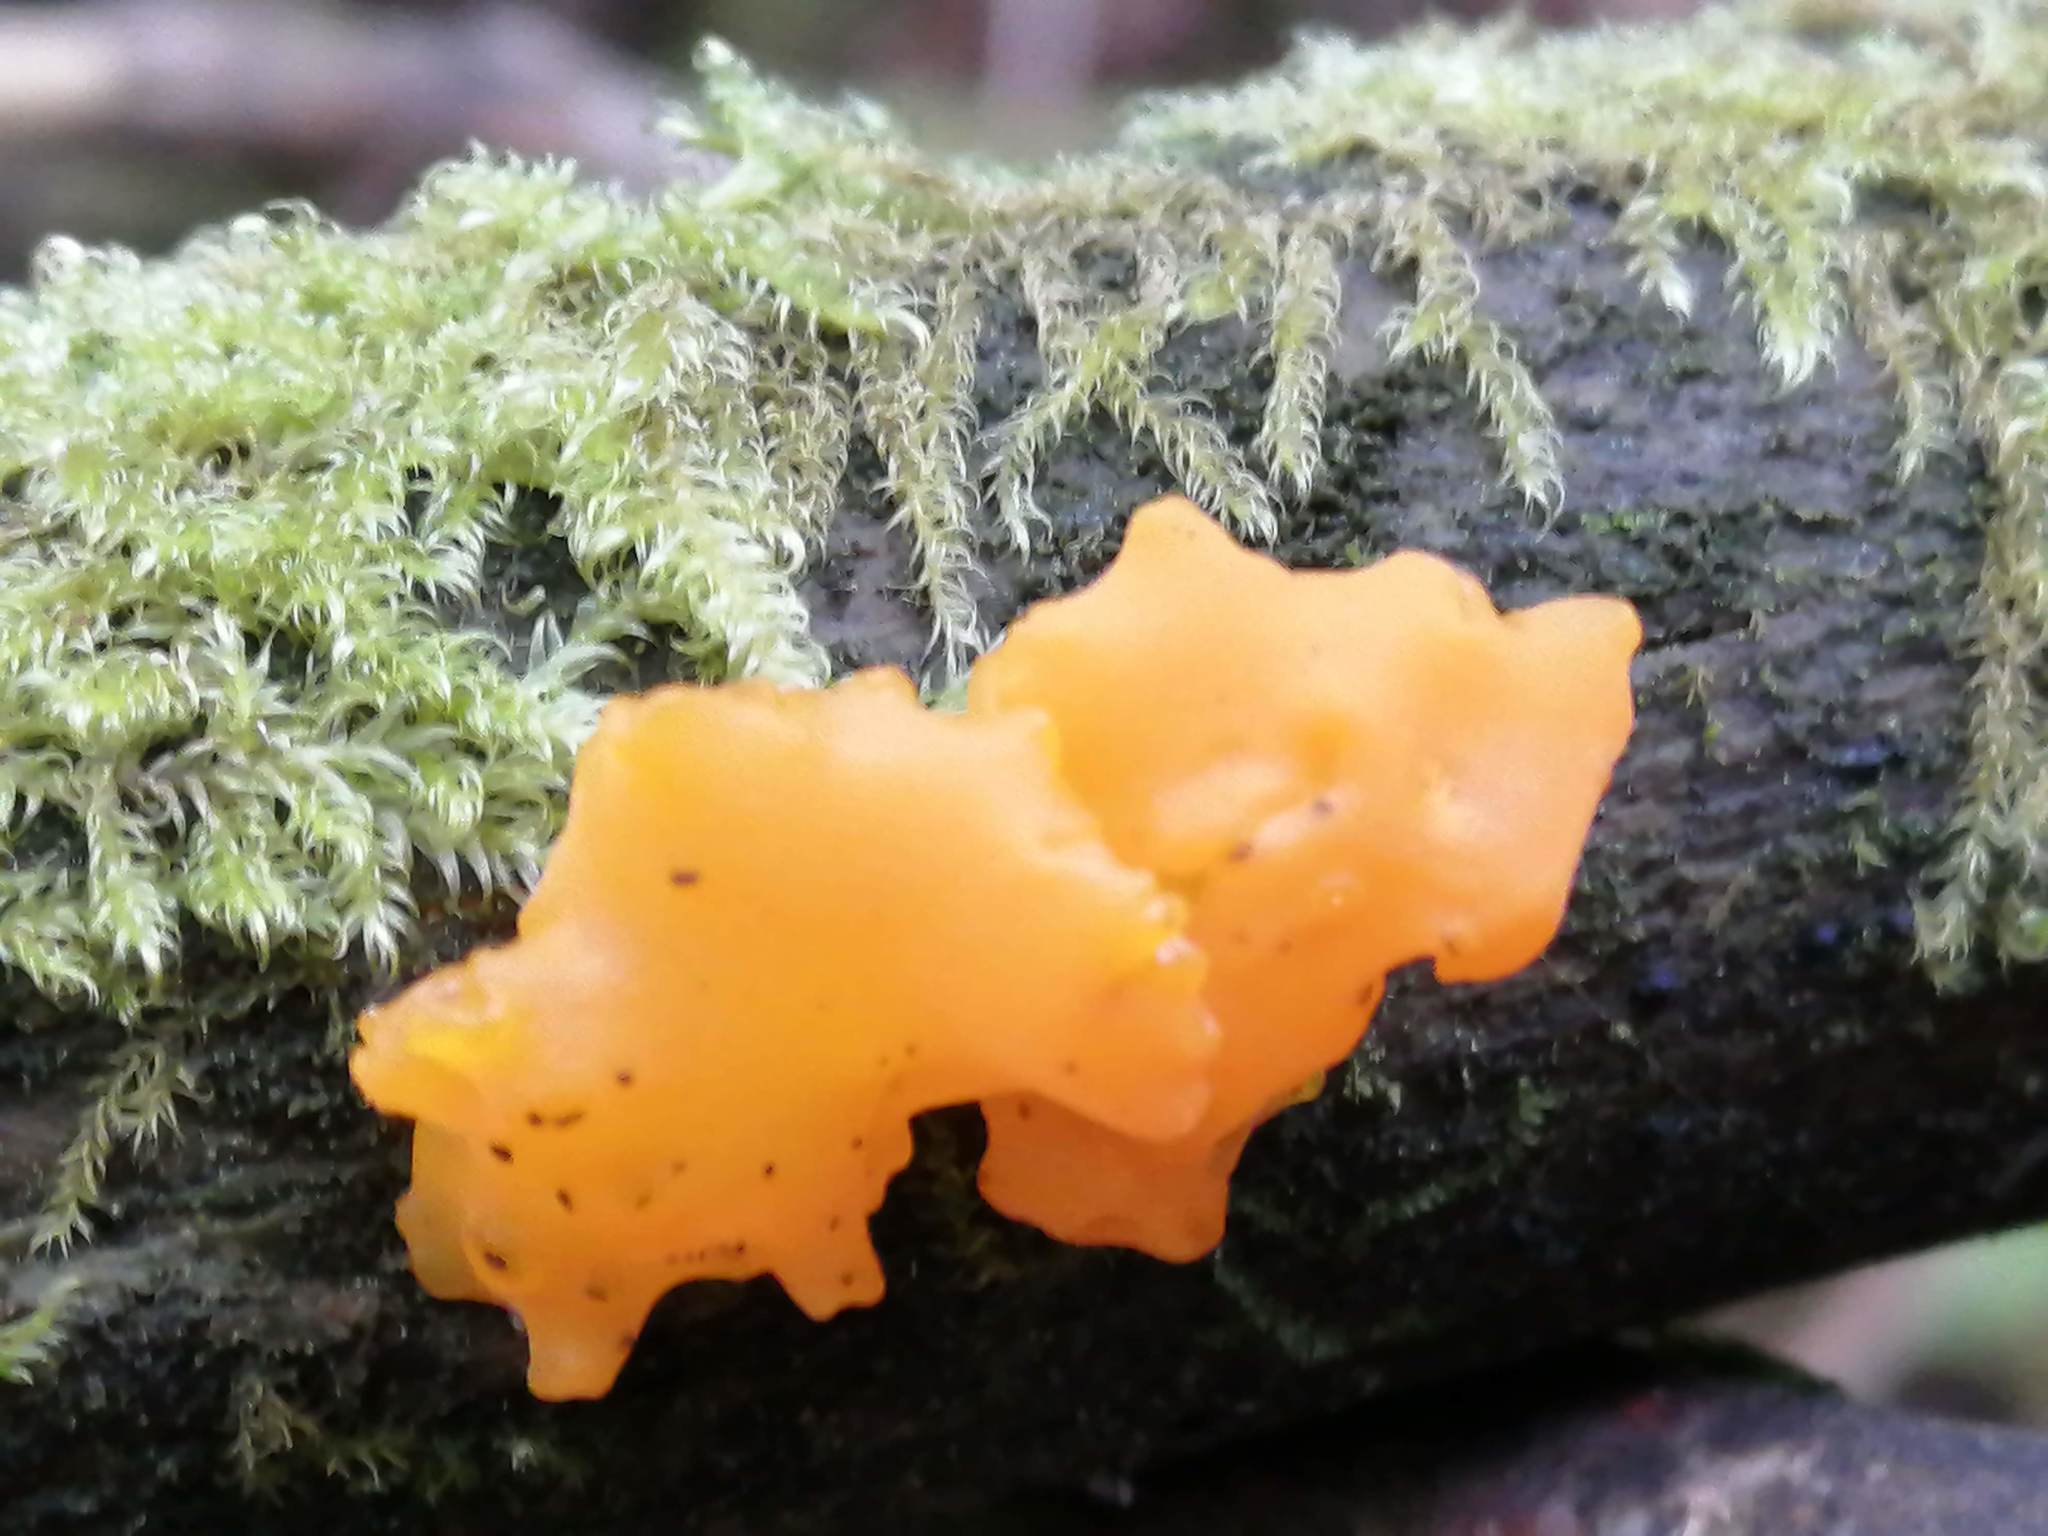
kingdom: Fungi
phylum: Basidiomycota
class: Dacrymycetes
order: Dacrymycetales
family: Dacrymycetaceae
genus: Dacrymyces
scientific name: Dacrymyces chrysospermus
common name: Orange jelly spot
